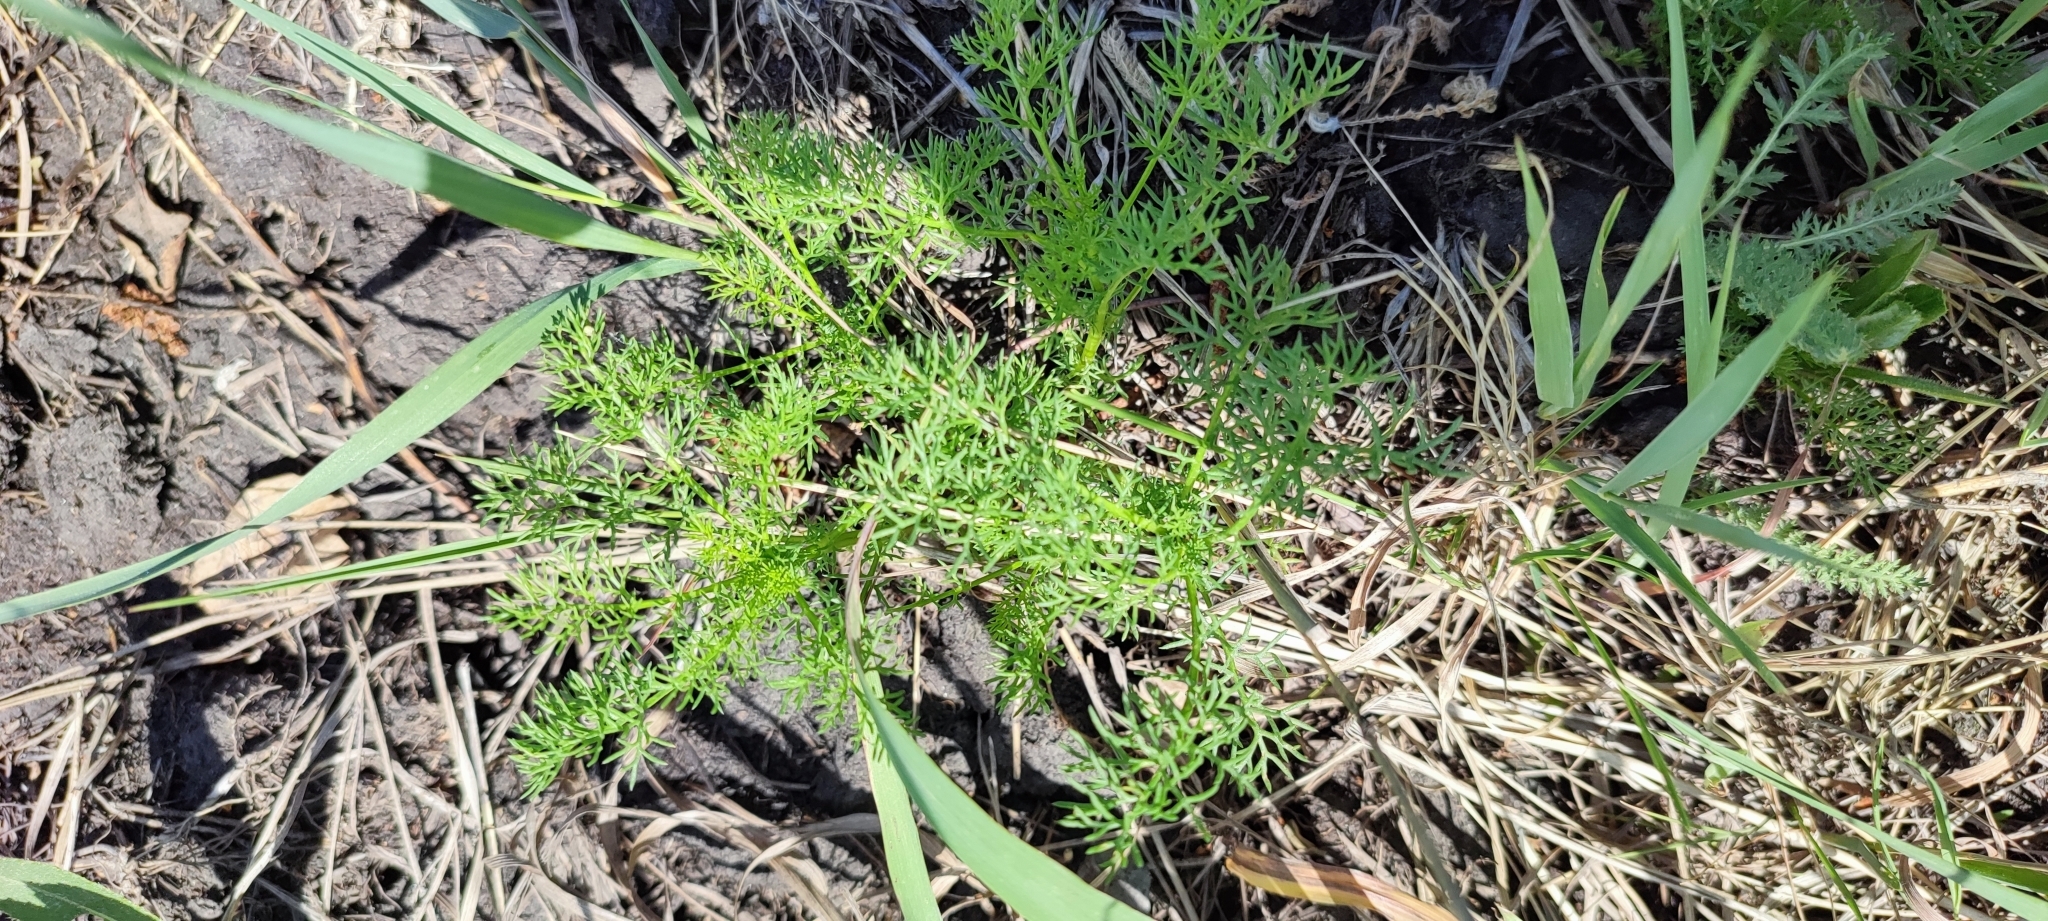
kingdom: Plantae
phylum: Tracheophyta
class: Magnoliopsida
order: Asterales
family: Asteraceae
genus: Tripleurospermum
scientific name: Tripleurospermum inodorum
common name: Scentless mayweed
